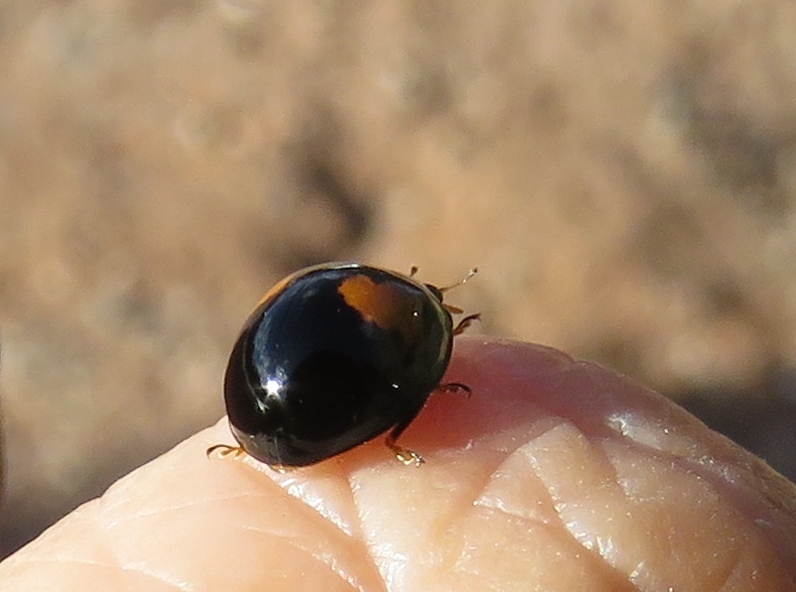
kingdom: Animalia
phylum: Arthropoda
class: Insecta
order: Coleoptera
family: Coccinellidae
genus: Olla
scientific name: Olla v-nigrum
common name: Ashy gray lady beetle
